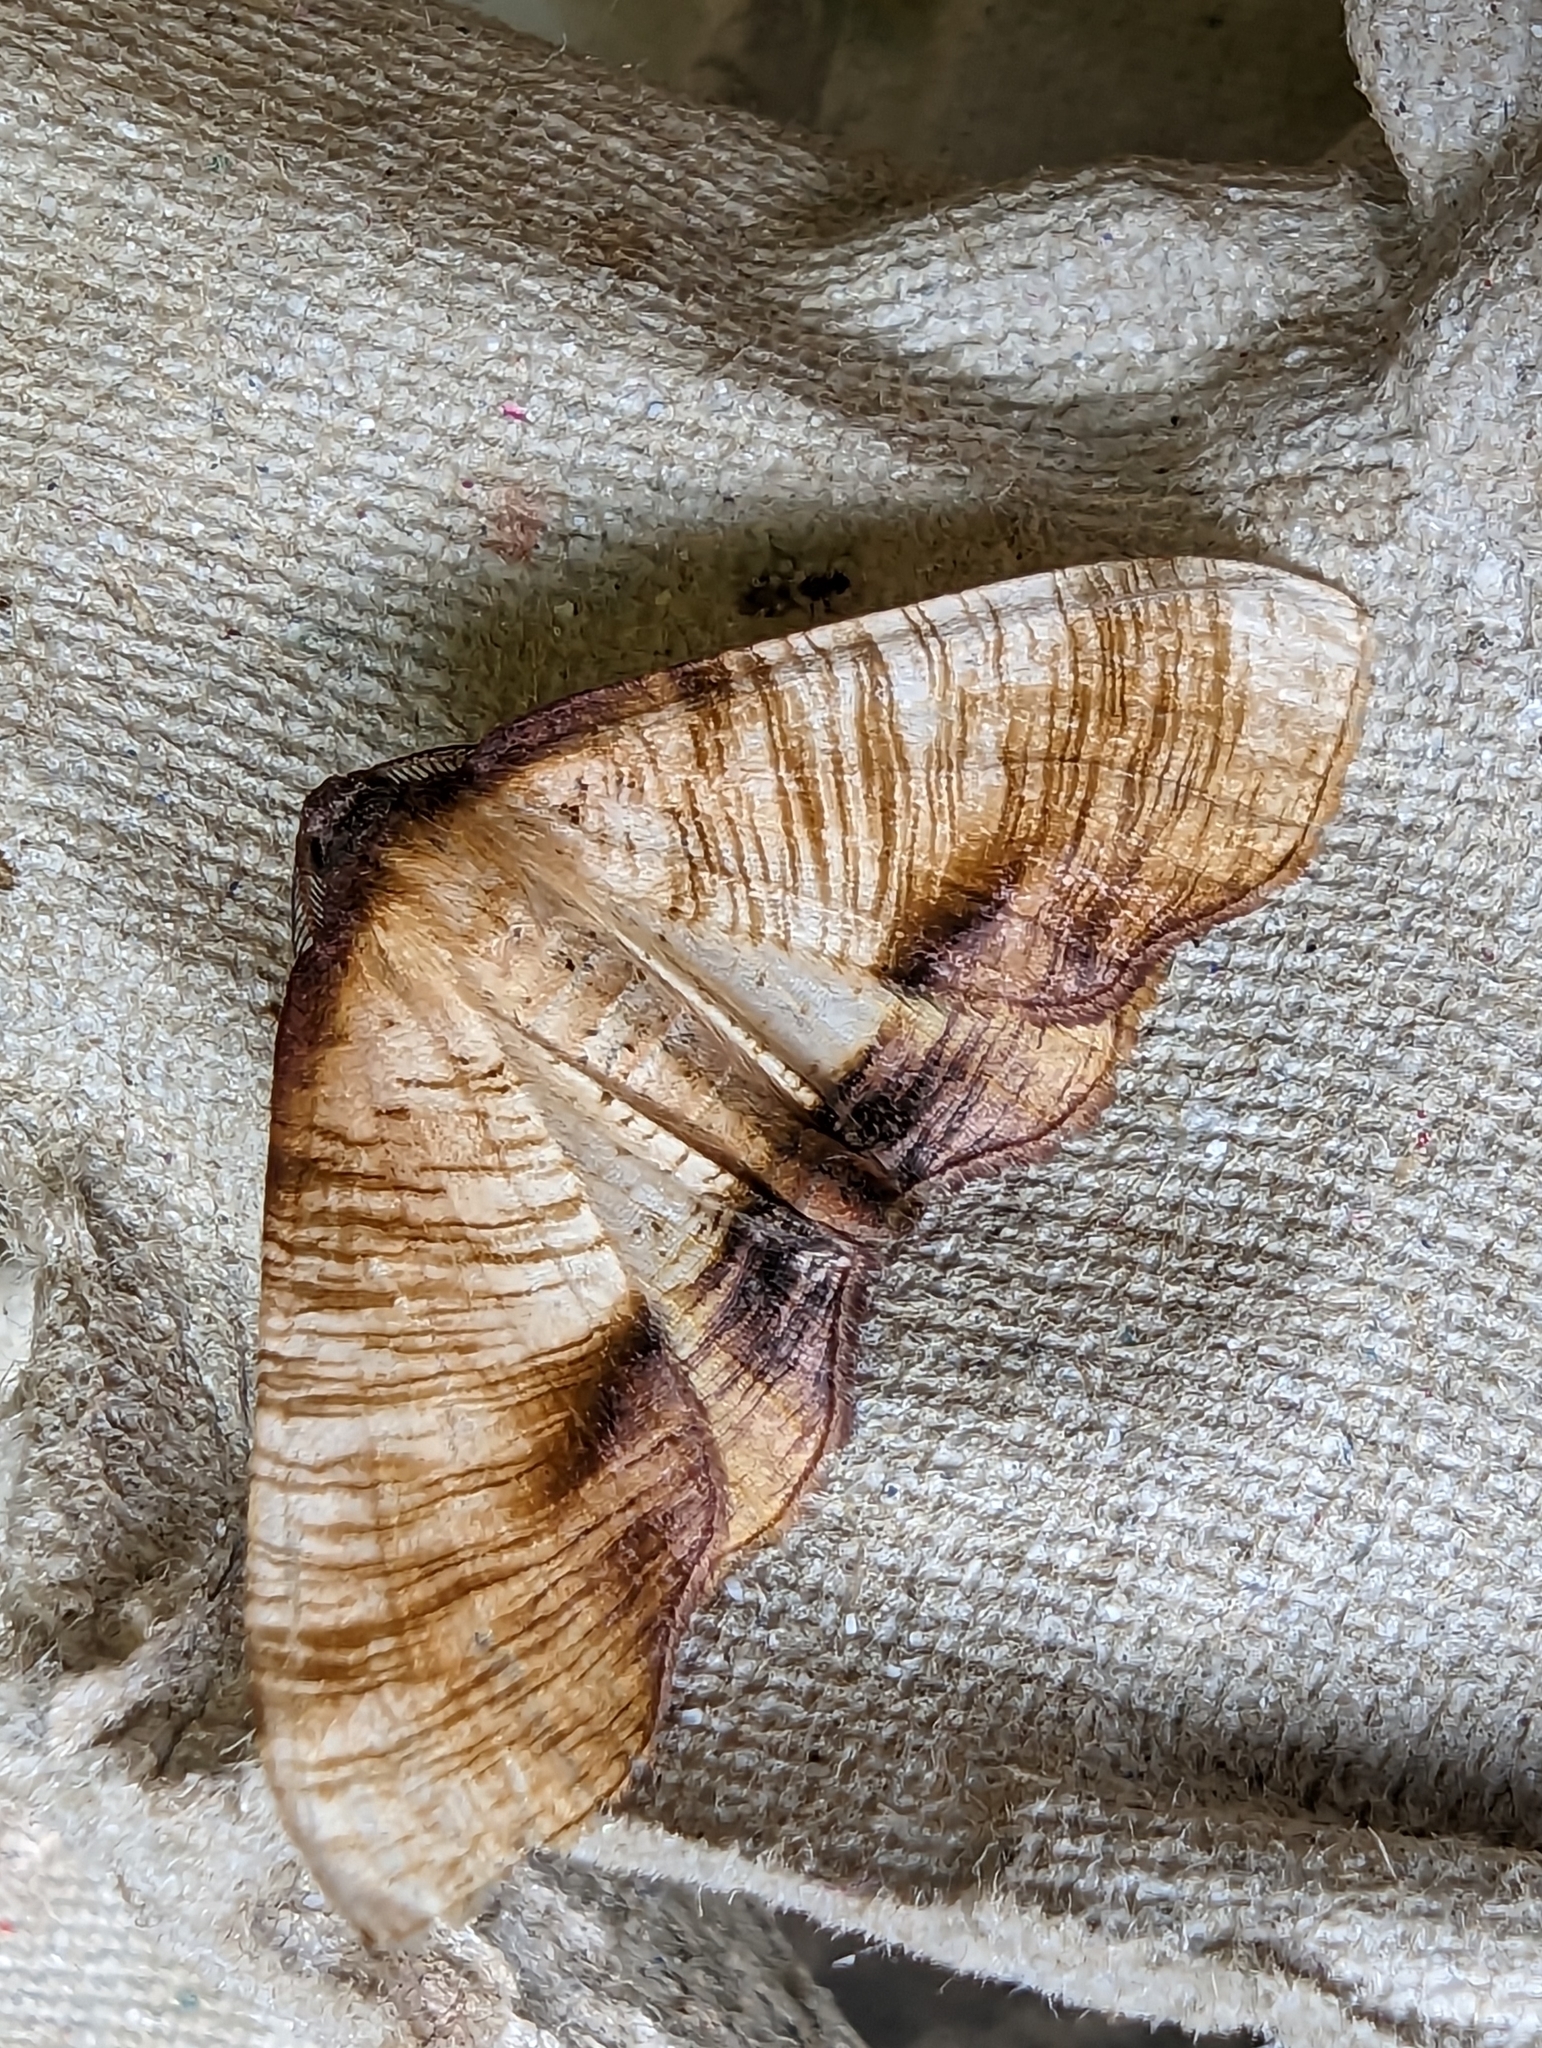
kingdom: Animalia
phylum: Arthropoda
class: Insecta
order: Lepidoptera
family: Geometridae
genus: Plagodis
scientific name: Plagodis dolabraria
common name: Scorched wing
